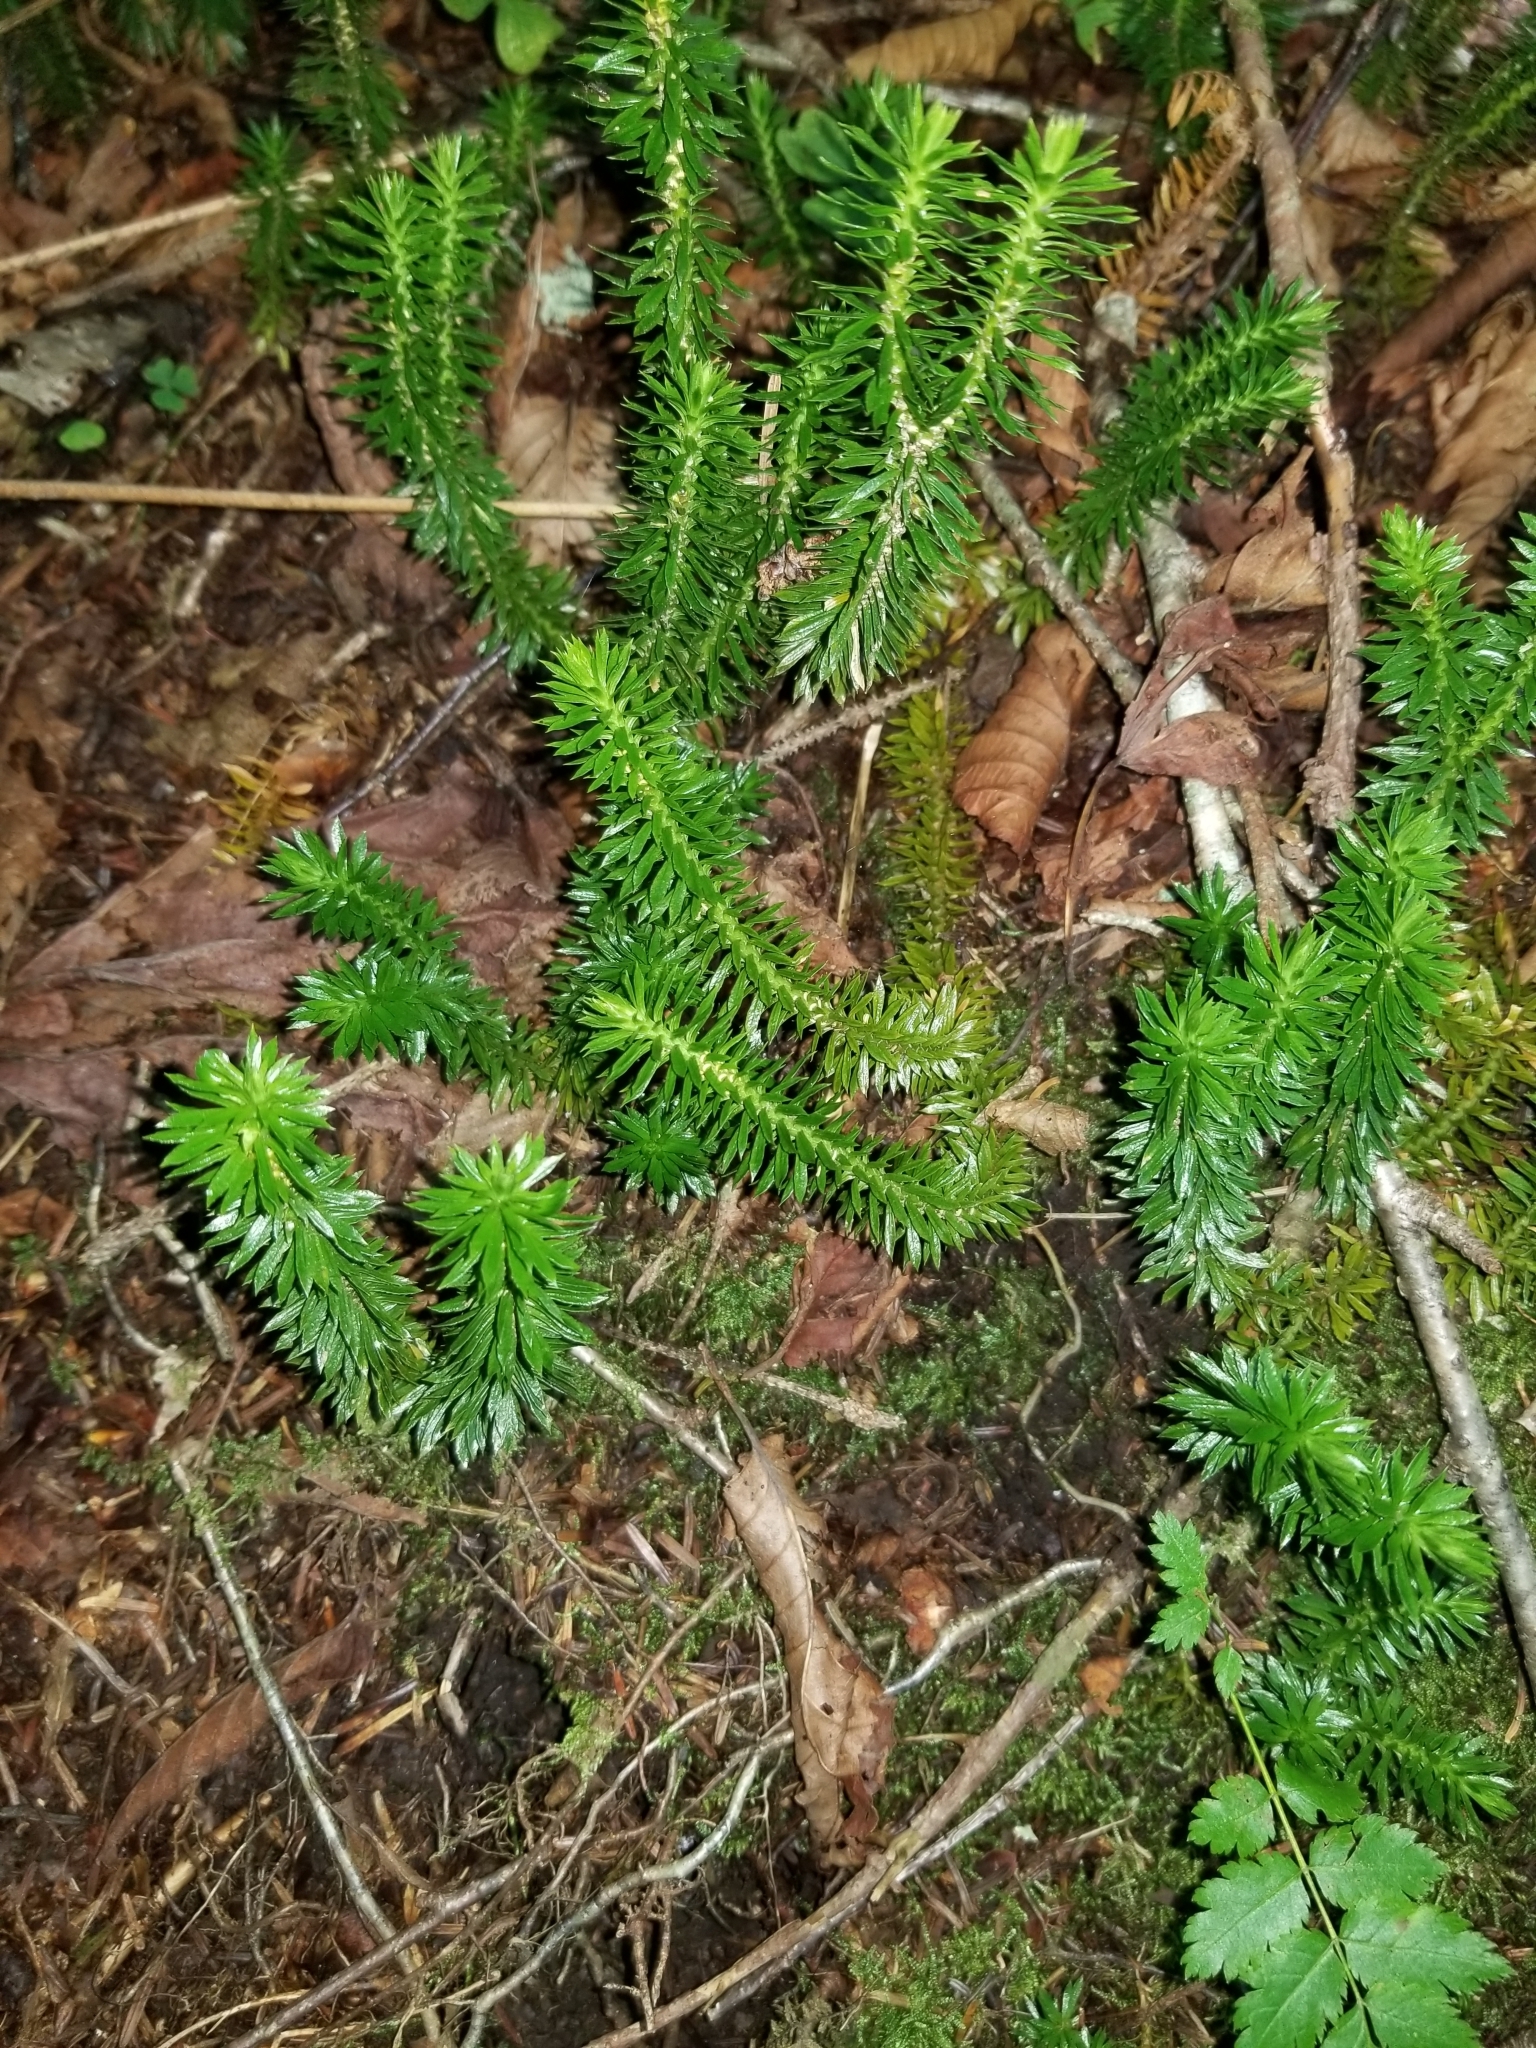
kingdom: Plantae
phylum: Tracheophyta
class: Lycopodiopsida
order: Lycopodiales
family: Lycopodiaceae
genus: Huperzia
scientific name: Huperzia lucidula
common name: Shining clubmoss
